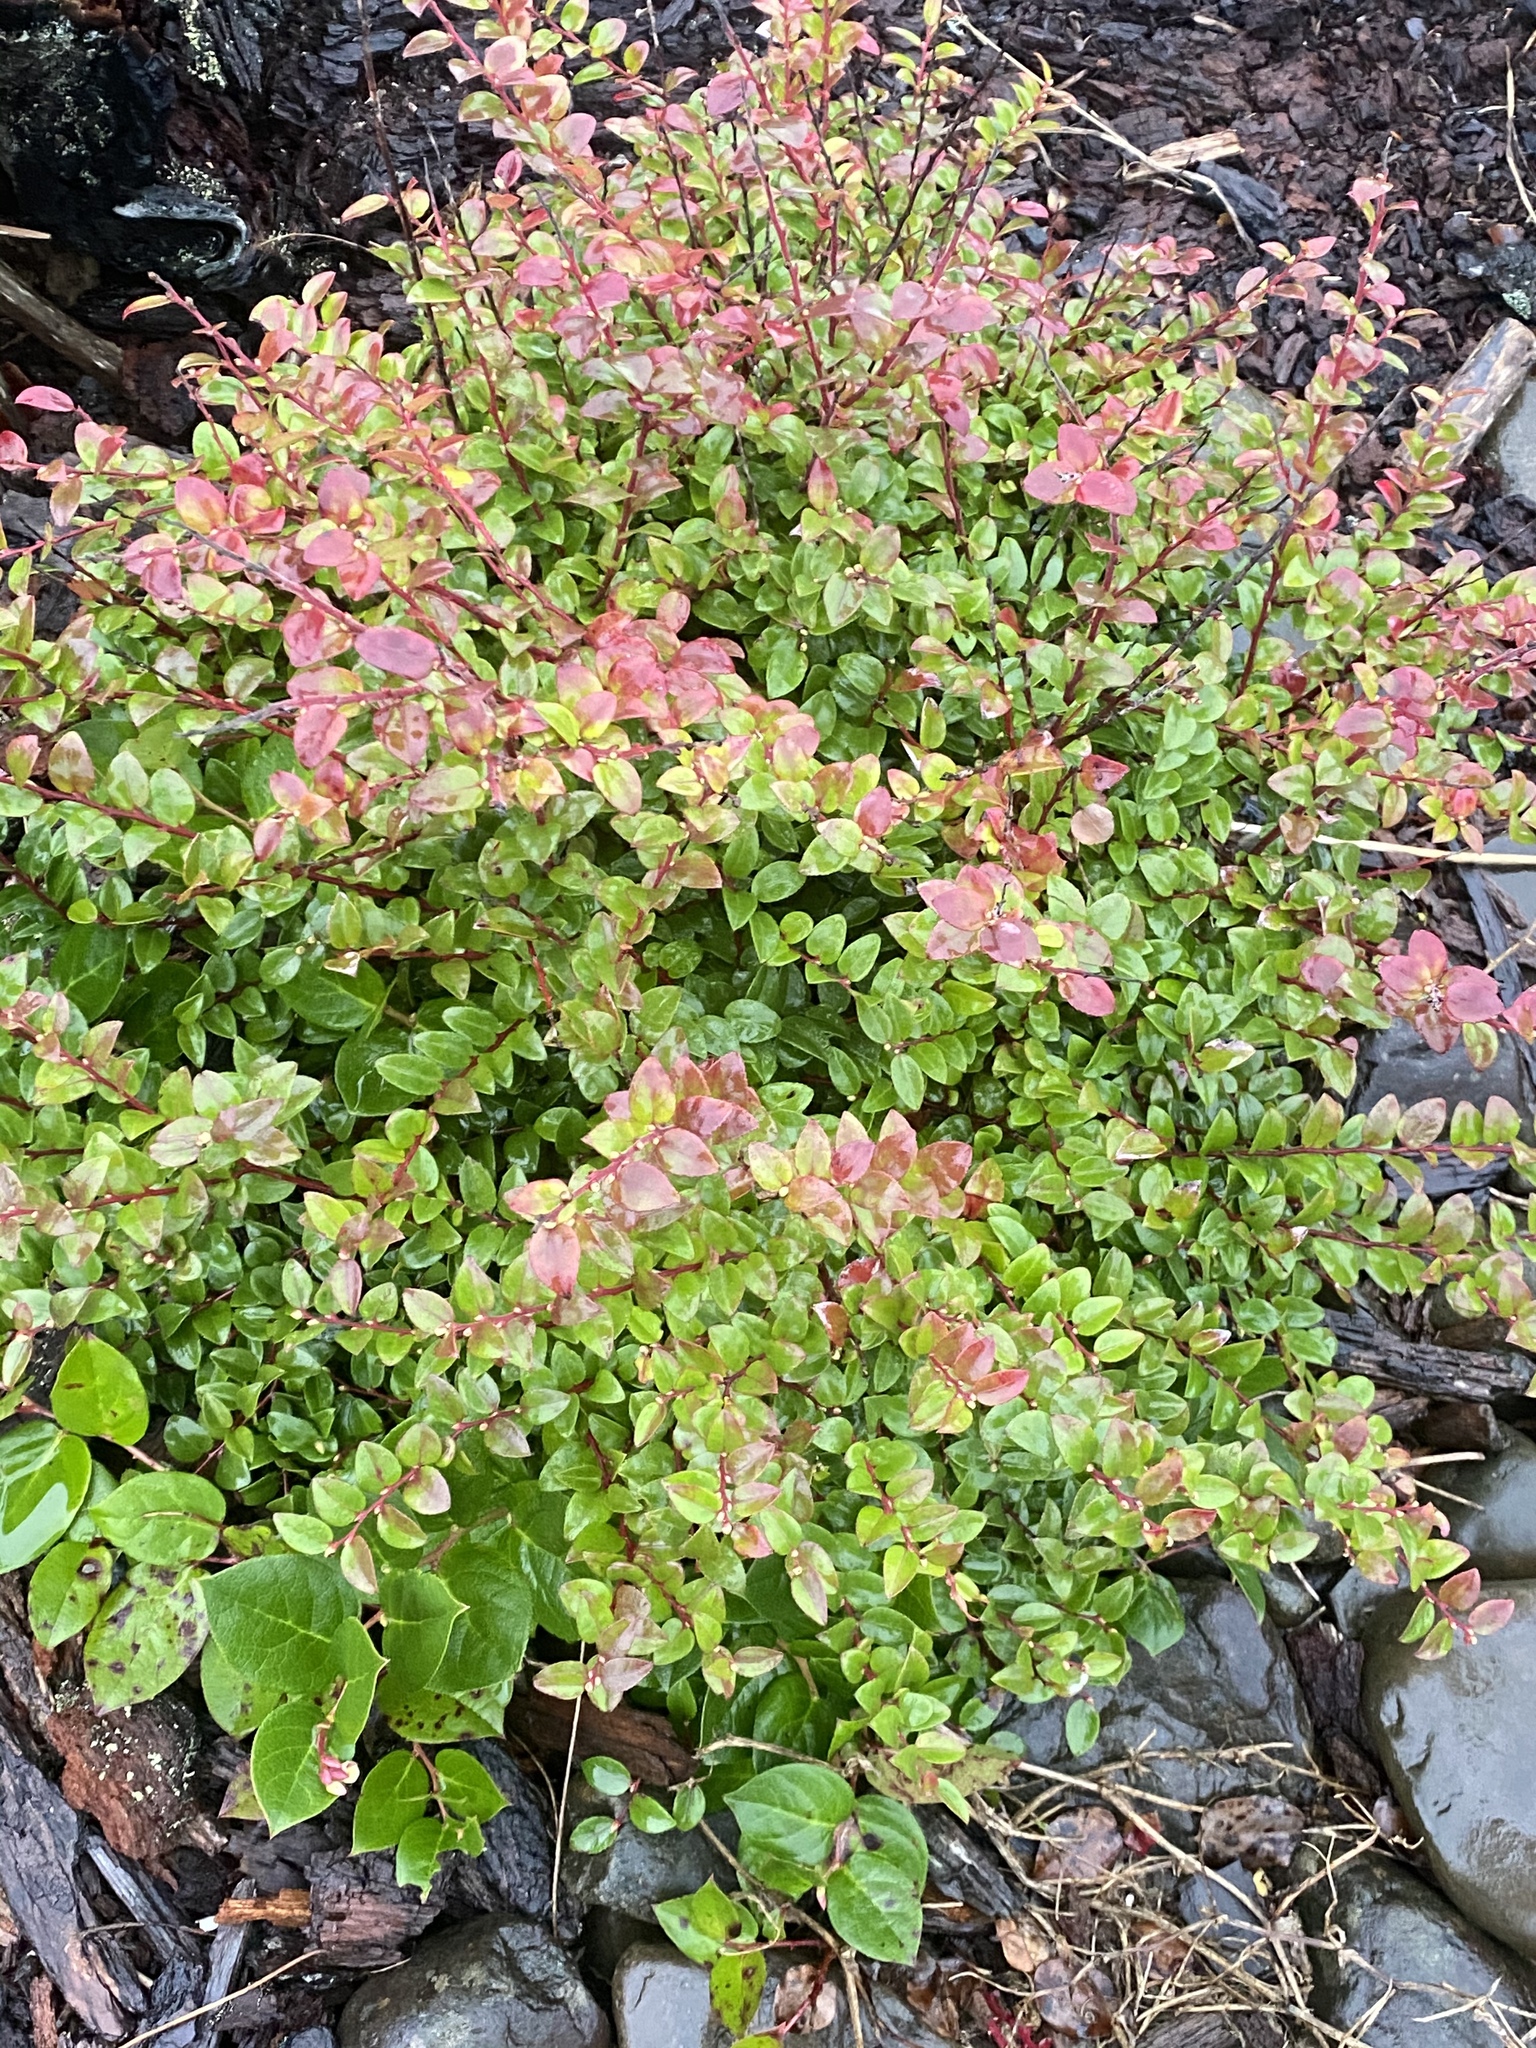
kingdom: Plantae
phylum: Tracheophyta
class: Magnoliopsida
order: Ericales
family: Ericaceae
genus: Vaccinium
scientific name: Vaccinium ovatum
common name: California-huckleberry
